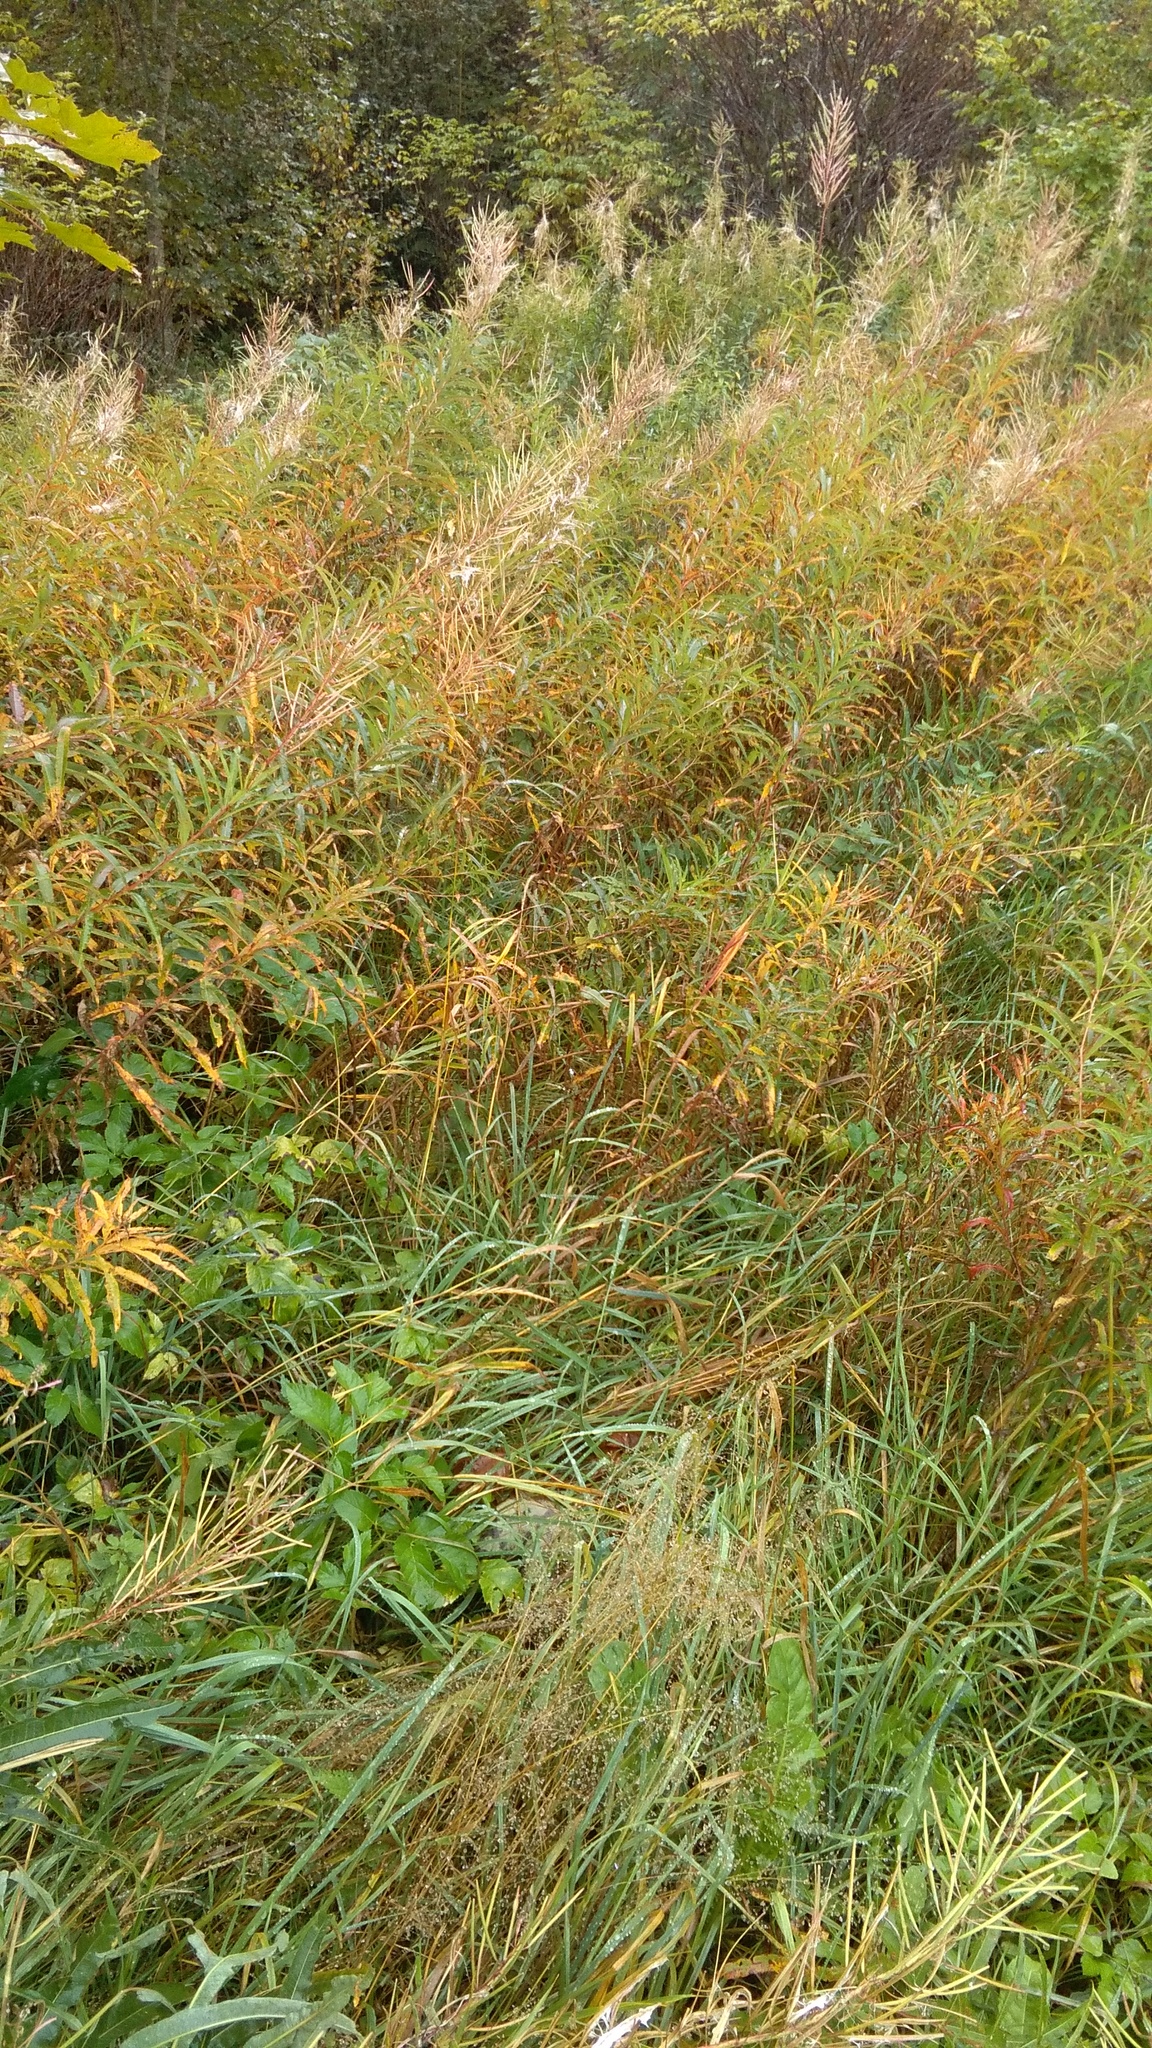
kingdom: Plantae
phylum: Tracheophyta
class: Magnoliopsida
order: Myrtales
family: Onagraceae
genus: Chamaenerion
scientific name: Chamaenerion angustifolium
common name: Fireweed
